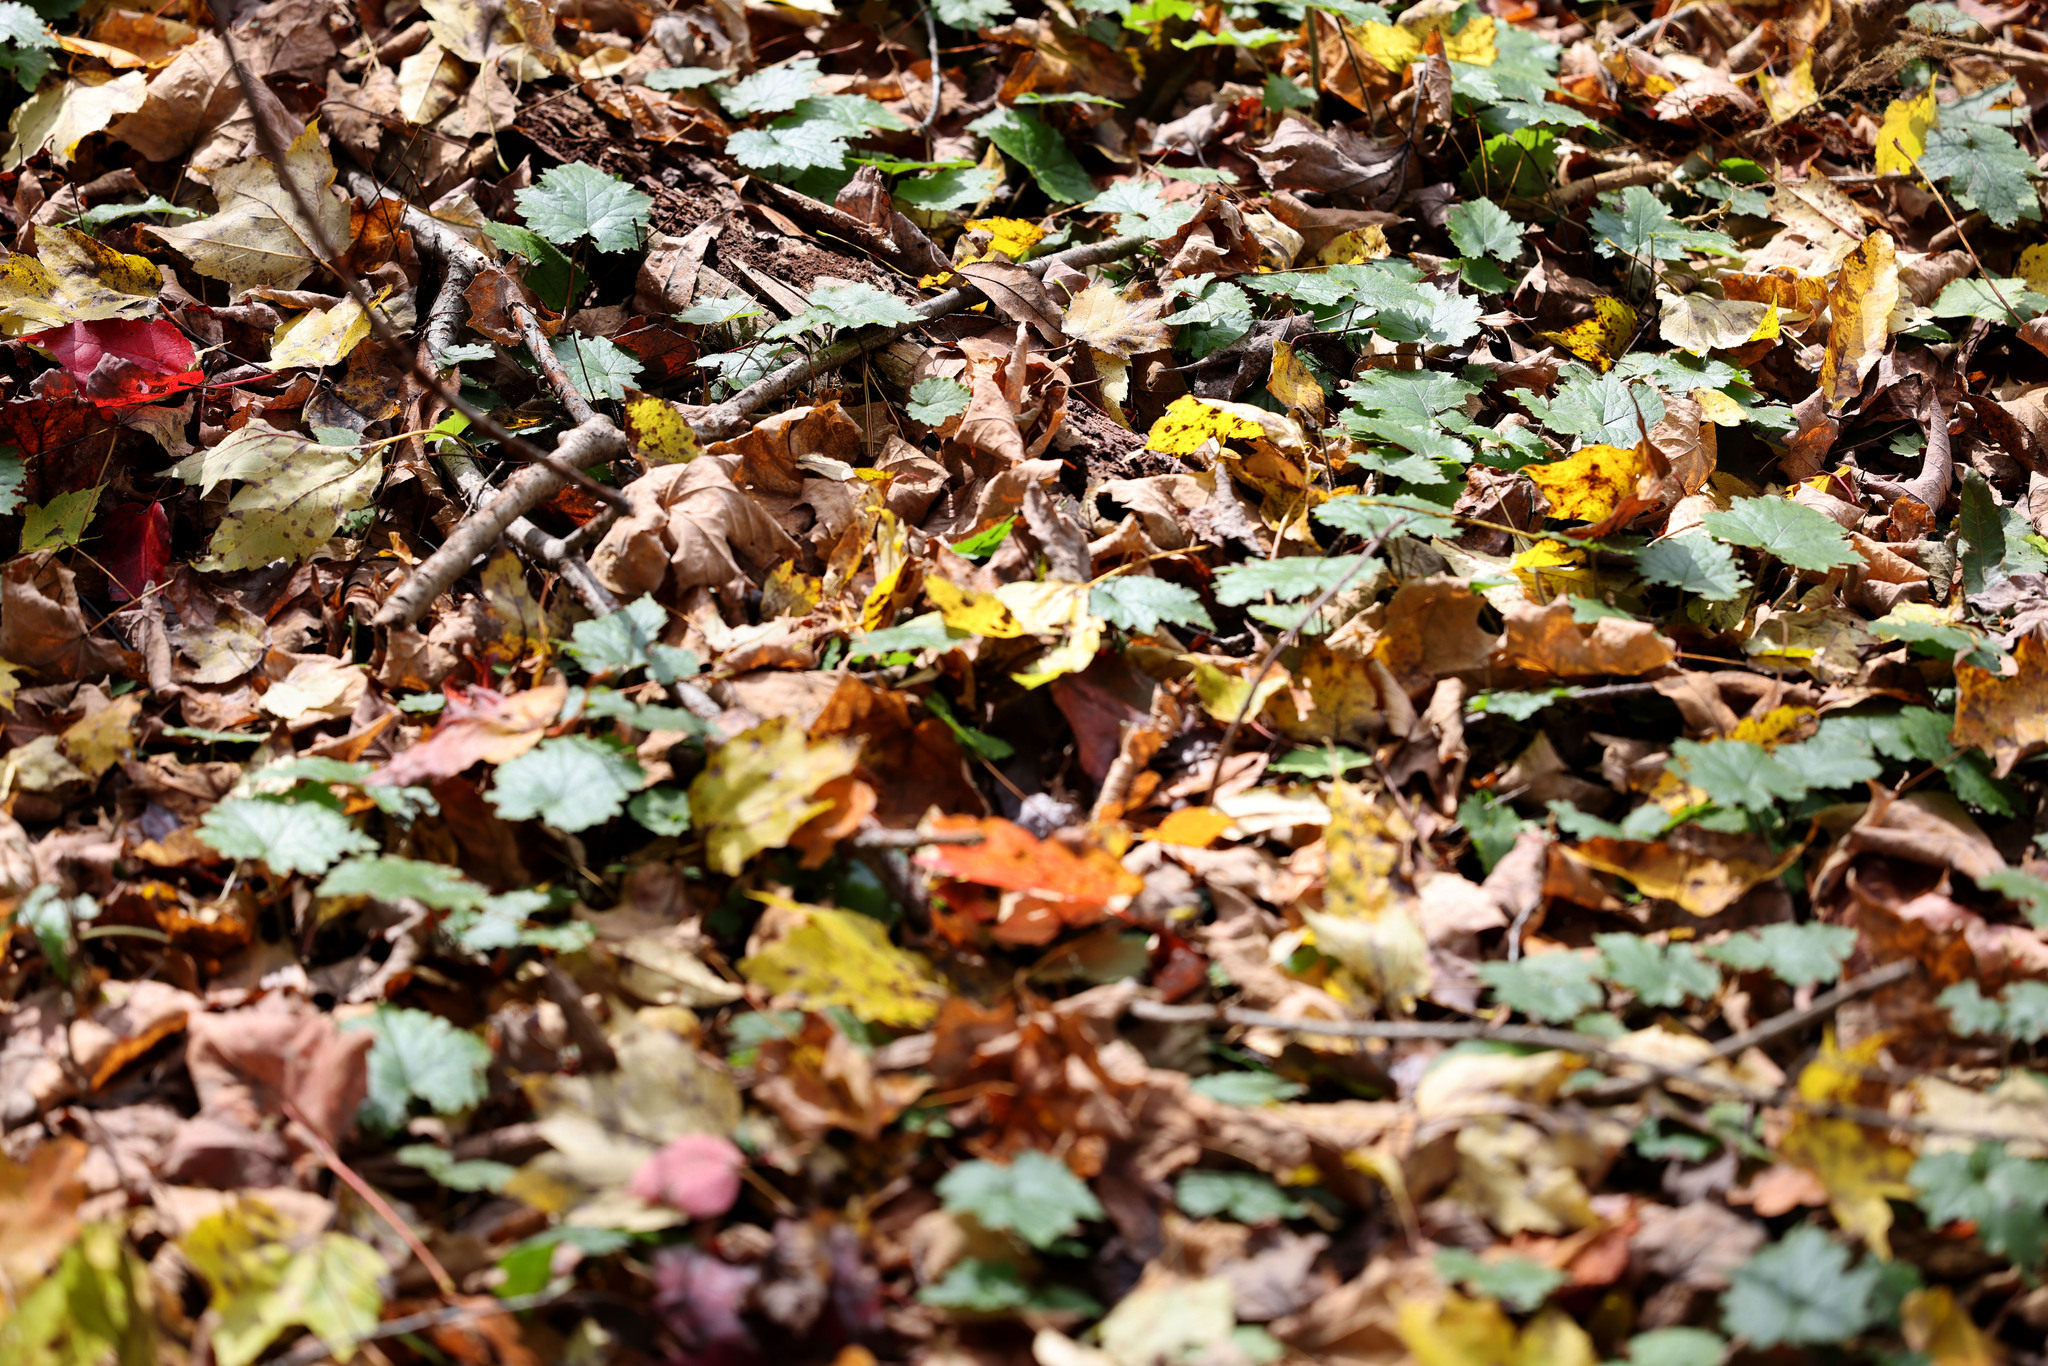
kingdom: Plantae
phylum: Tracheophyta
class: Magnoliopsida
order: Saxifragales
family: Saxifragaceae
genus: Tiarella
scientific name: Tiarella stolonifera
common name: Stoloniferous foamflower
